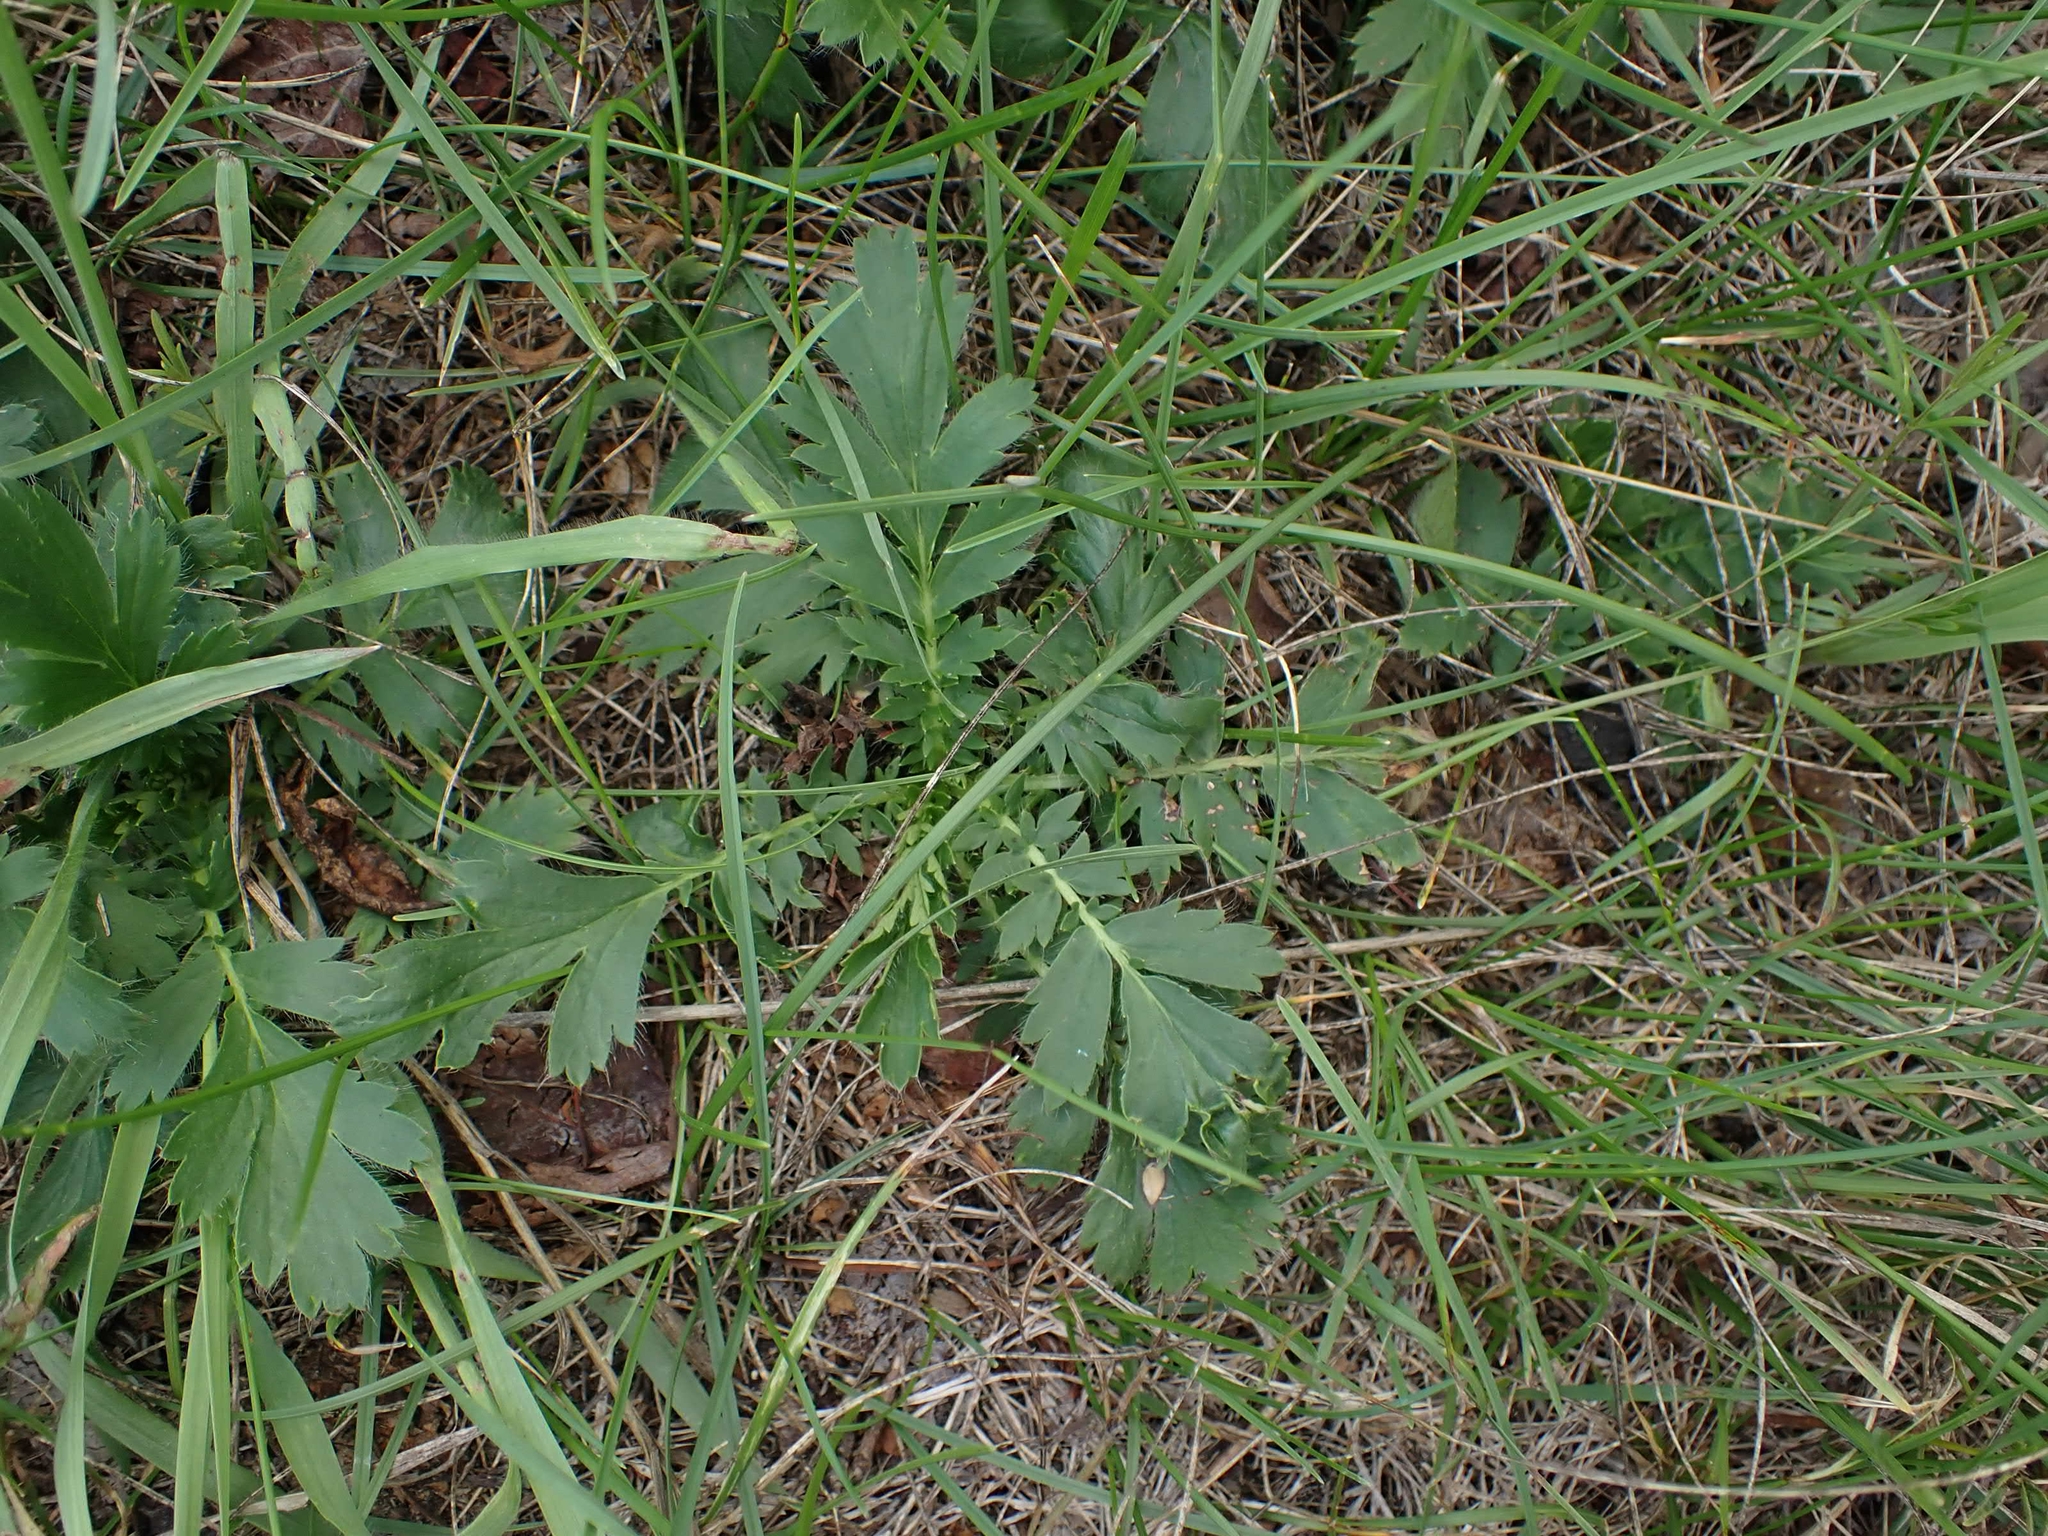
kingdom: Plantae
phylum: Tracheophyta
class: Magnoliopsida
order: Rosales
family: Rosaceae
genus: Geum
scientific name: Geum triflorum
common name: Old man's whiskers
